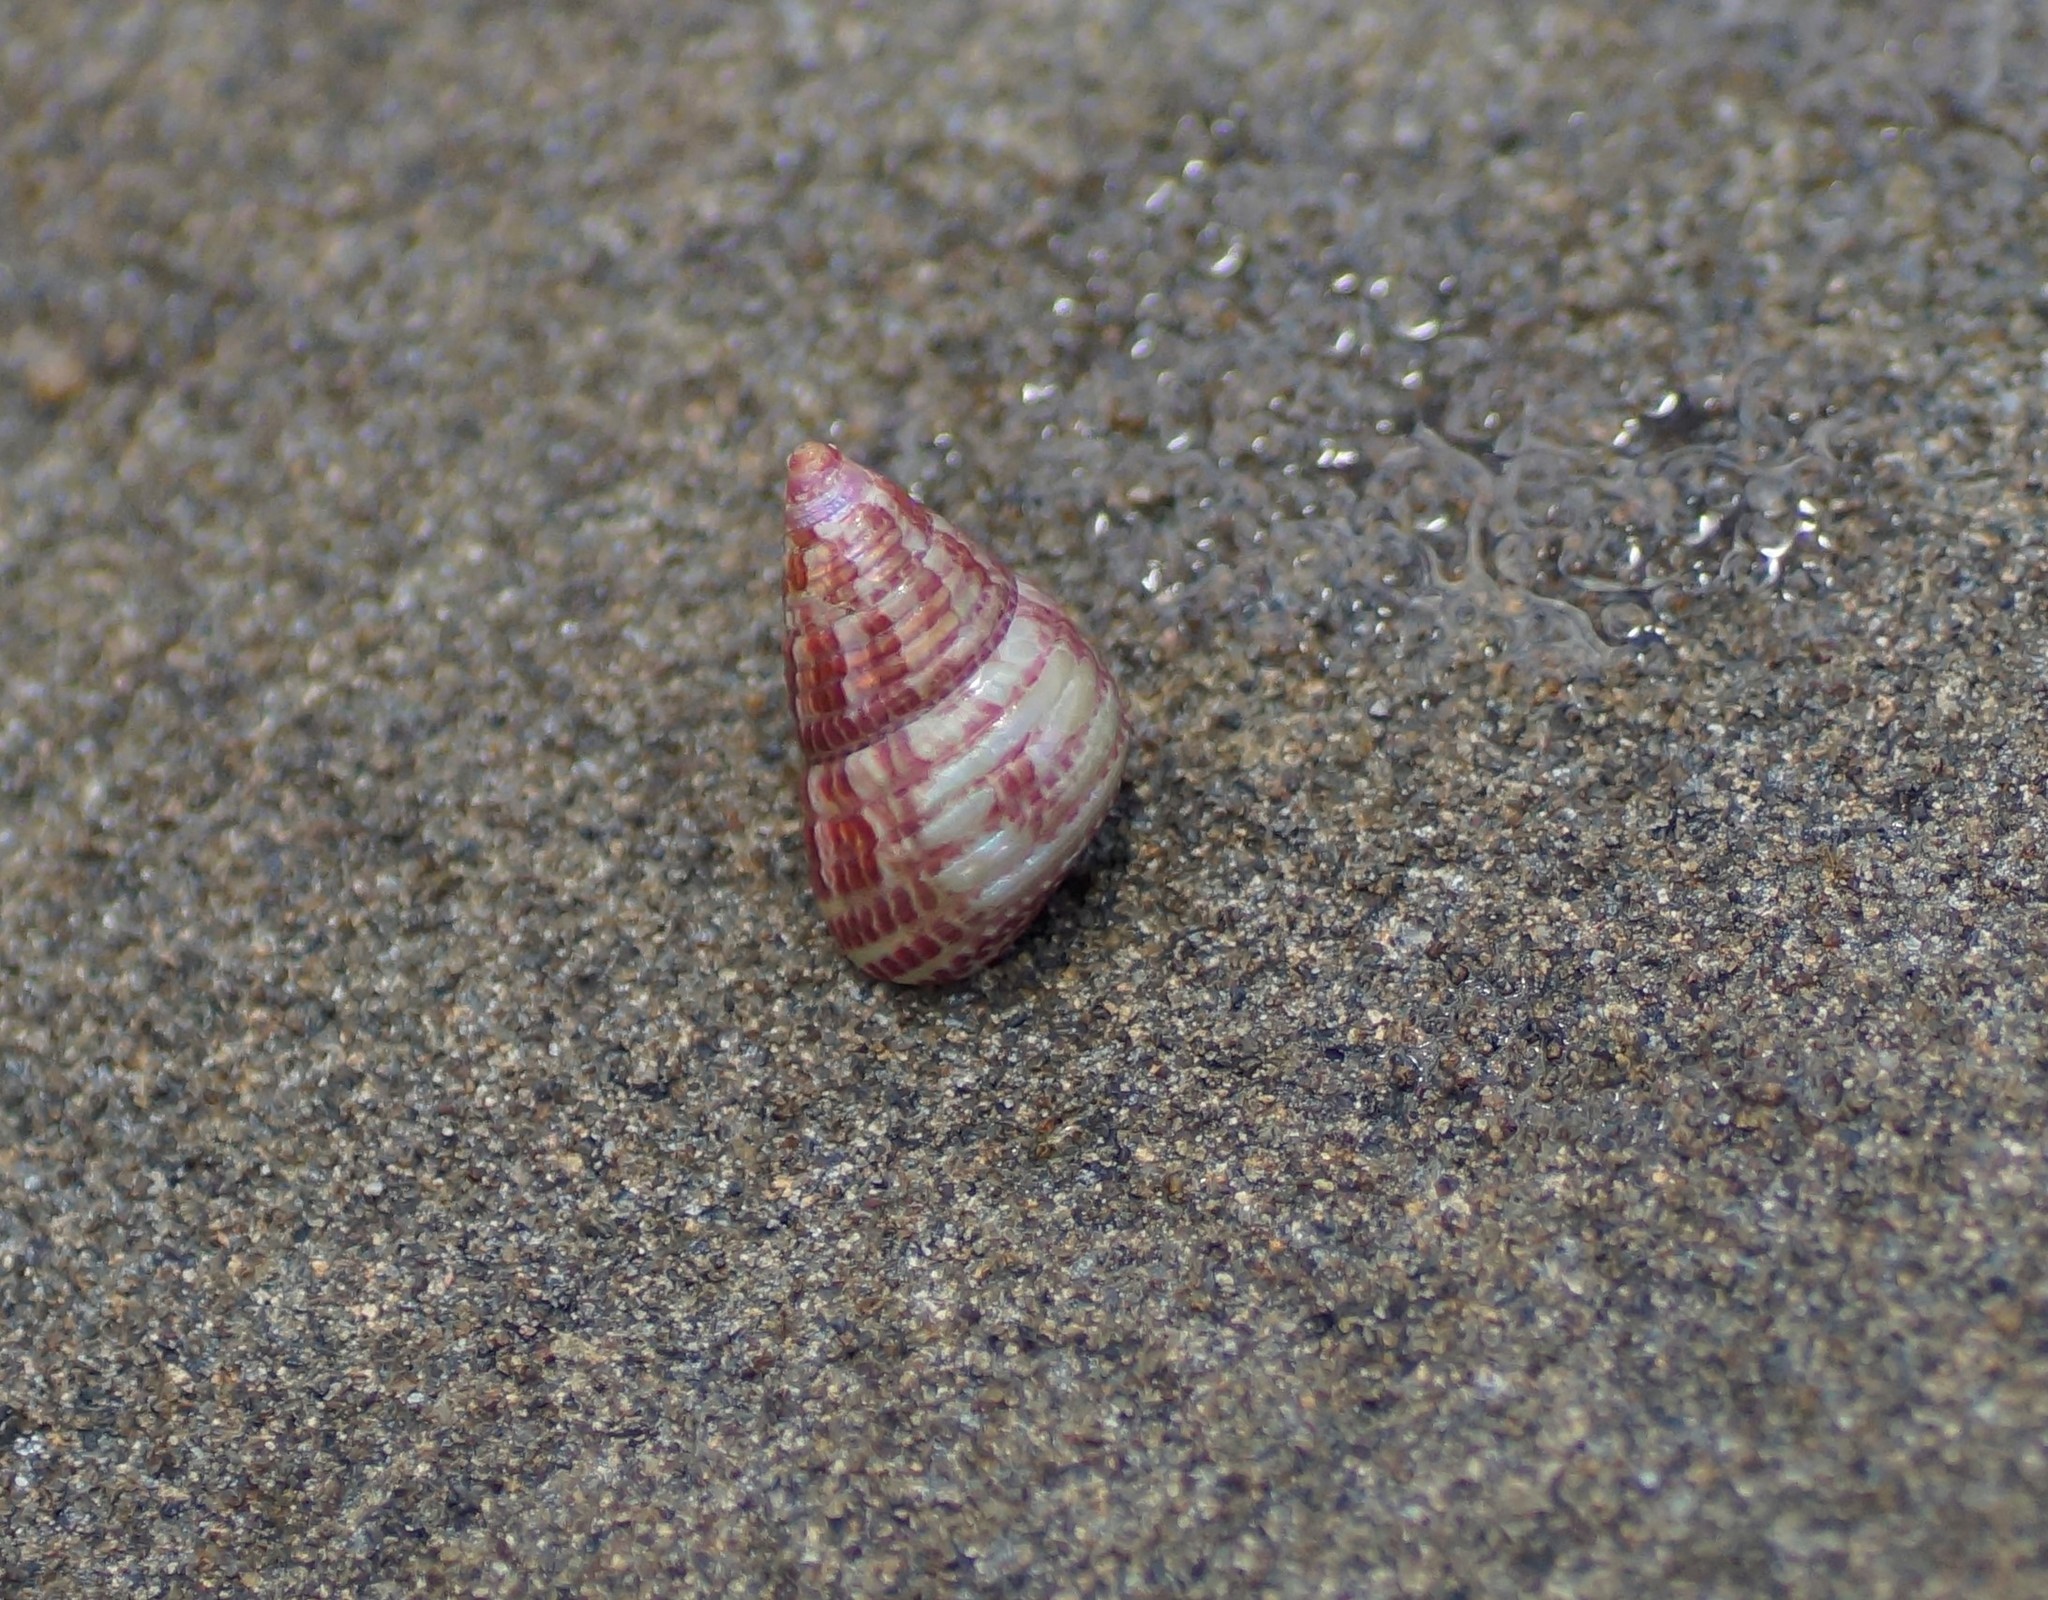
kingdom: Animalia
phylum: Mollusca
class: Gastropoda
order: Trochida
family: Trochidae
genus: Prothalotia
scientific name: Prothalotia pulcherrima
